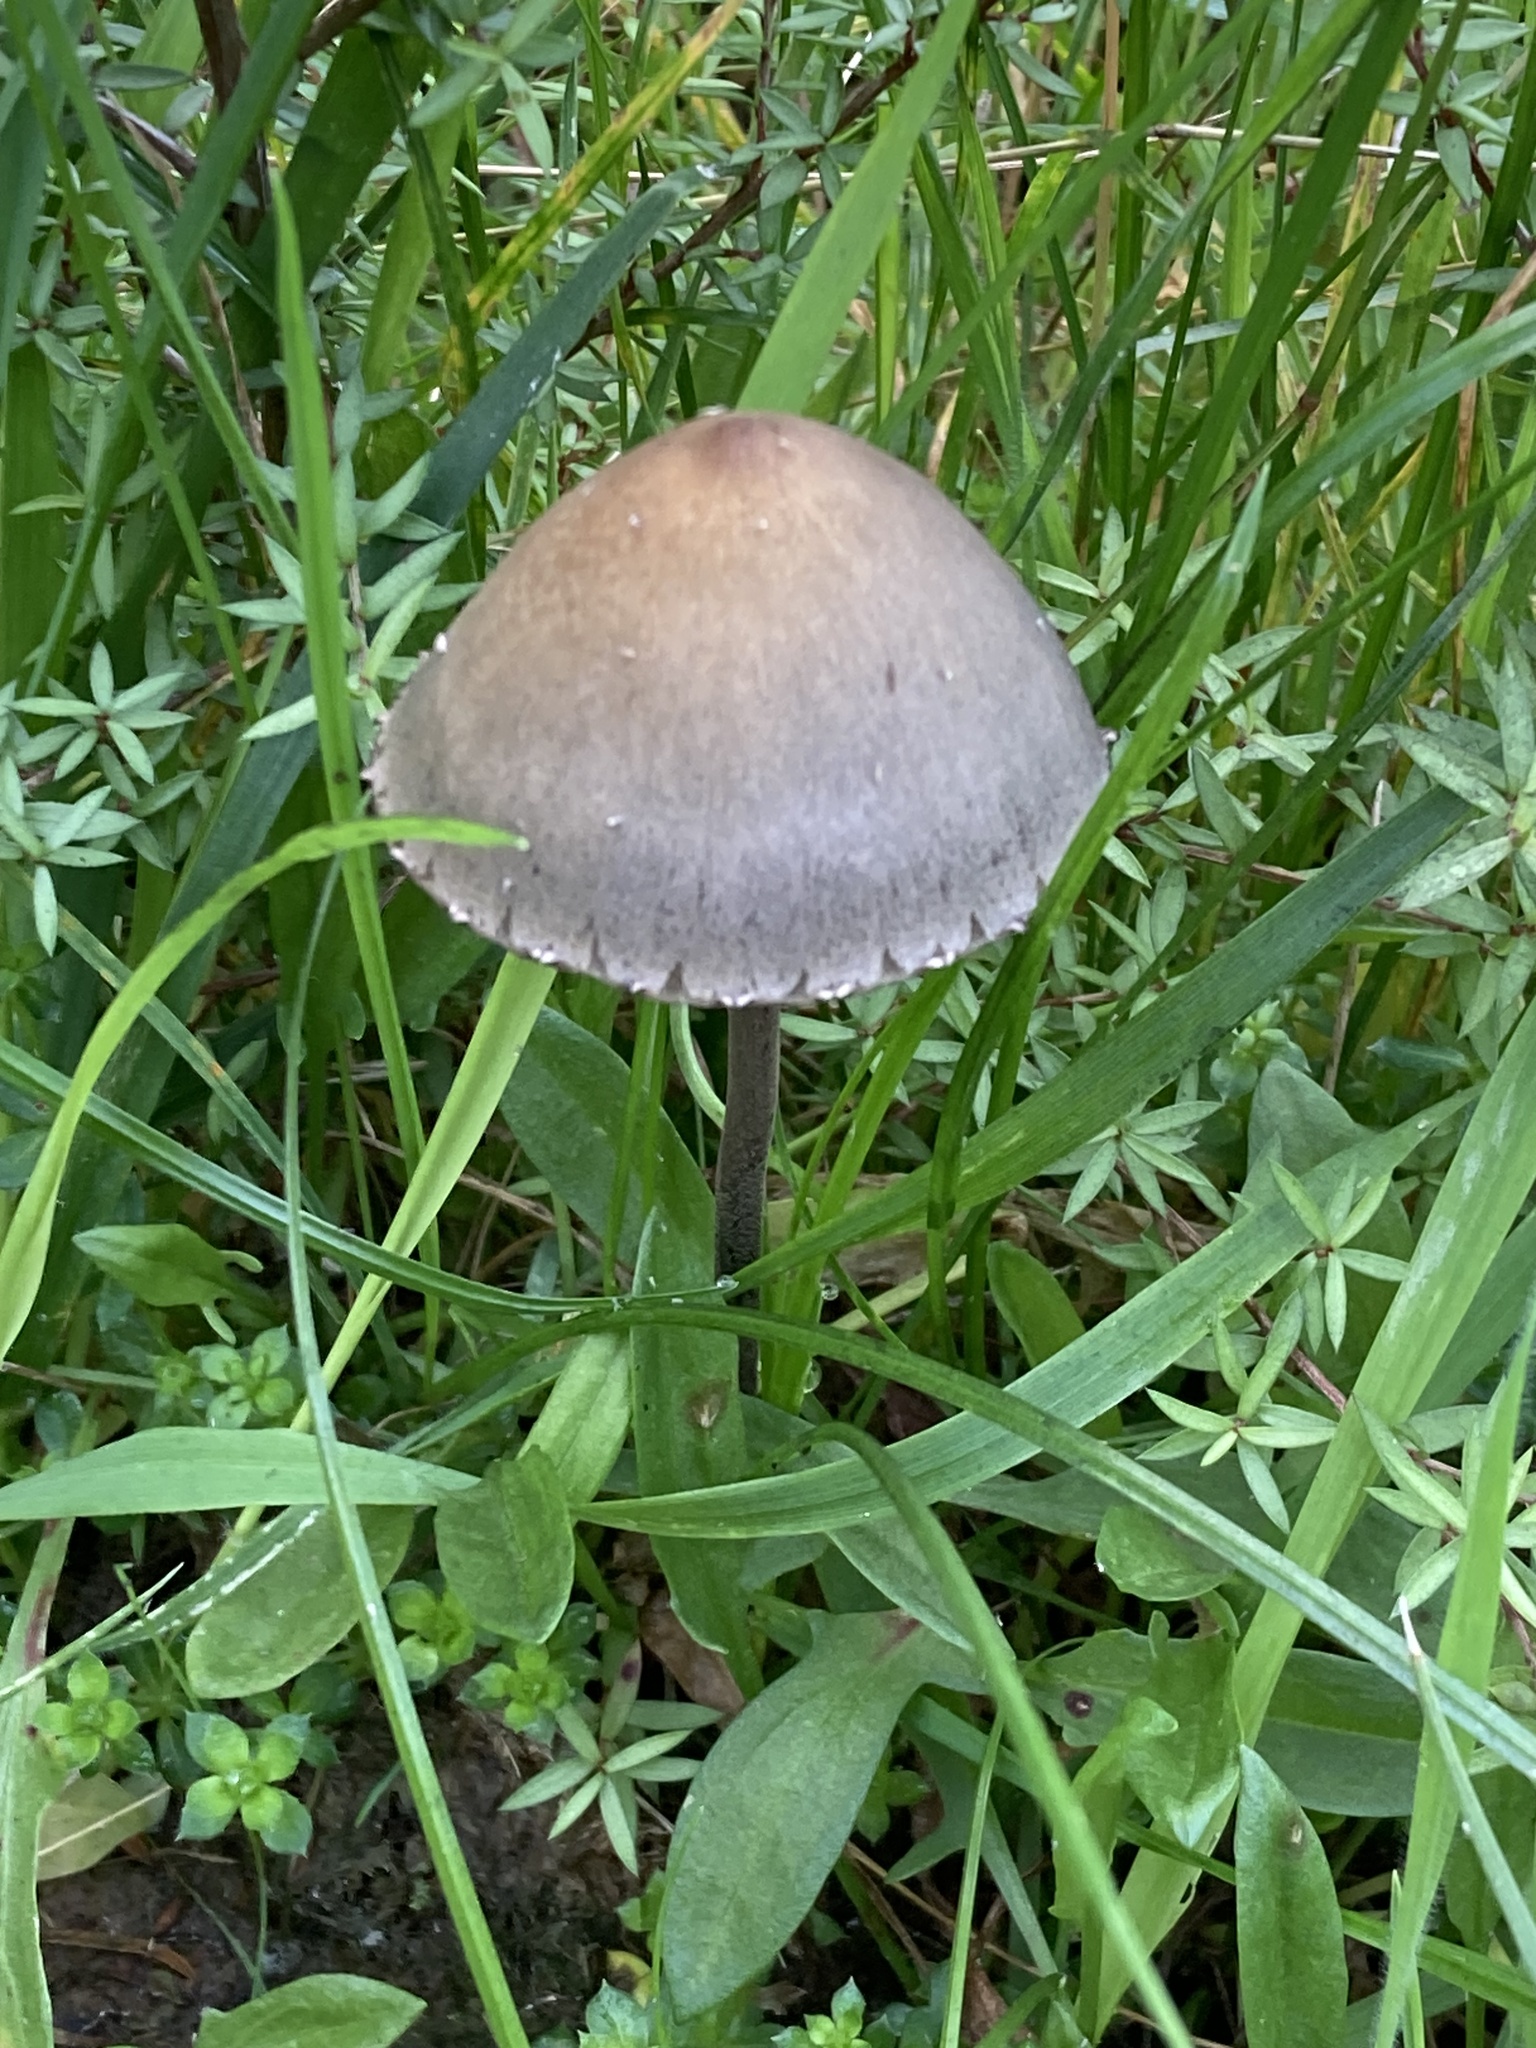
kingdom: Fungi
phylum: Basidiomycota
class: Agaricomycetes
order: Agaricales
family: Bolbitiaceae
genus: Panaeolus
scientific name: Panaeolus papilionaceus
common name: Petticoat mottlegill
